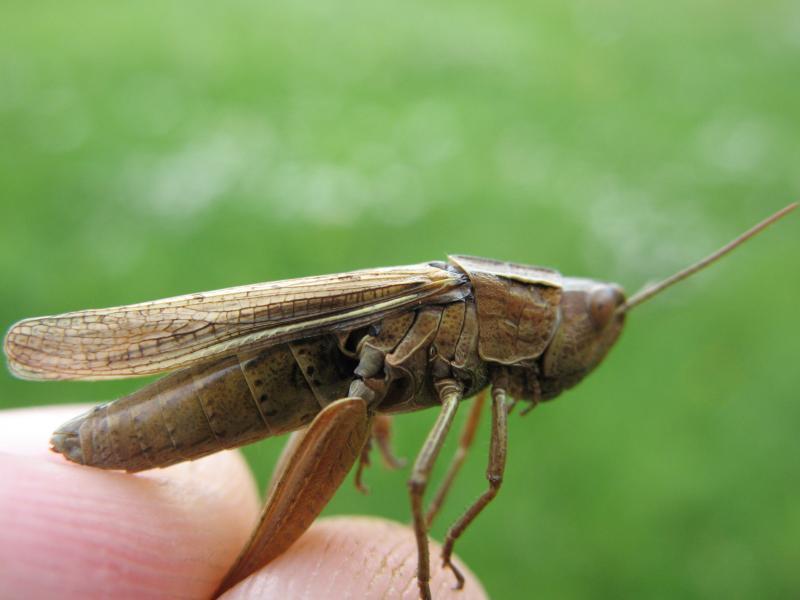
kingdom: Animalia
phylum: Arthropoda
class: Insecta
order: Orthoptera
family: Acrididae
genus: Chorthippus
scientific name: Chorthippus albomarginatus
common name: Lesser marsh grasshopper
